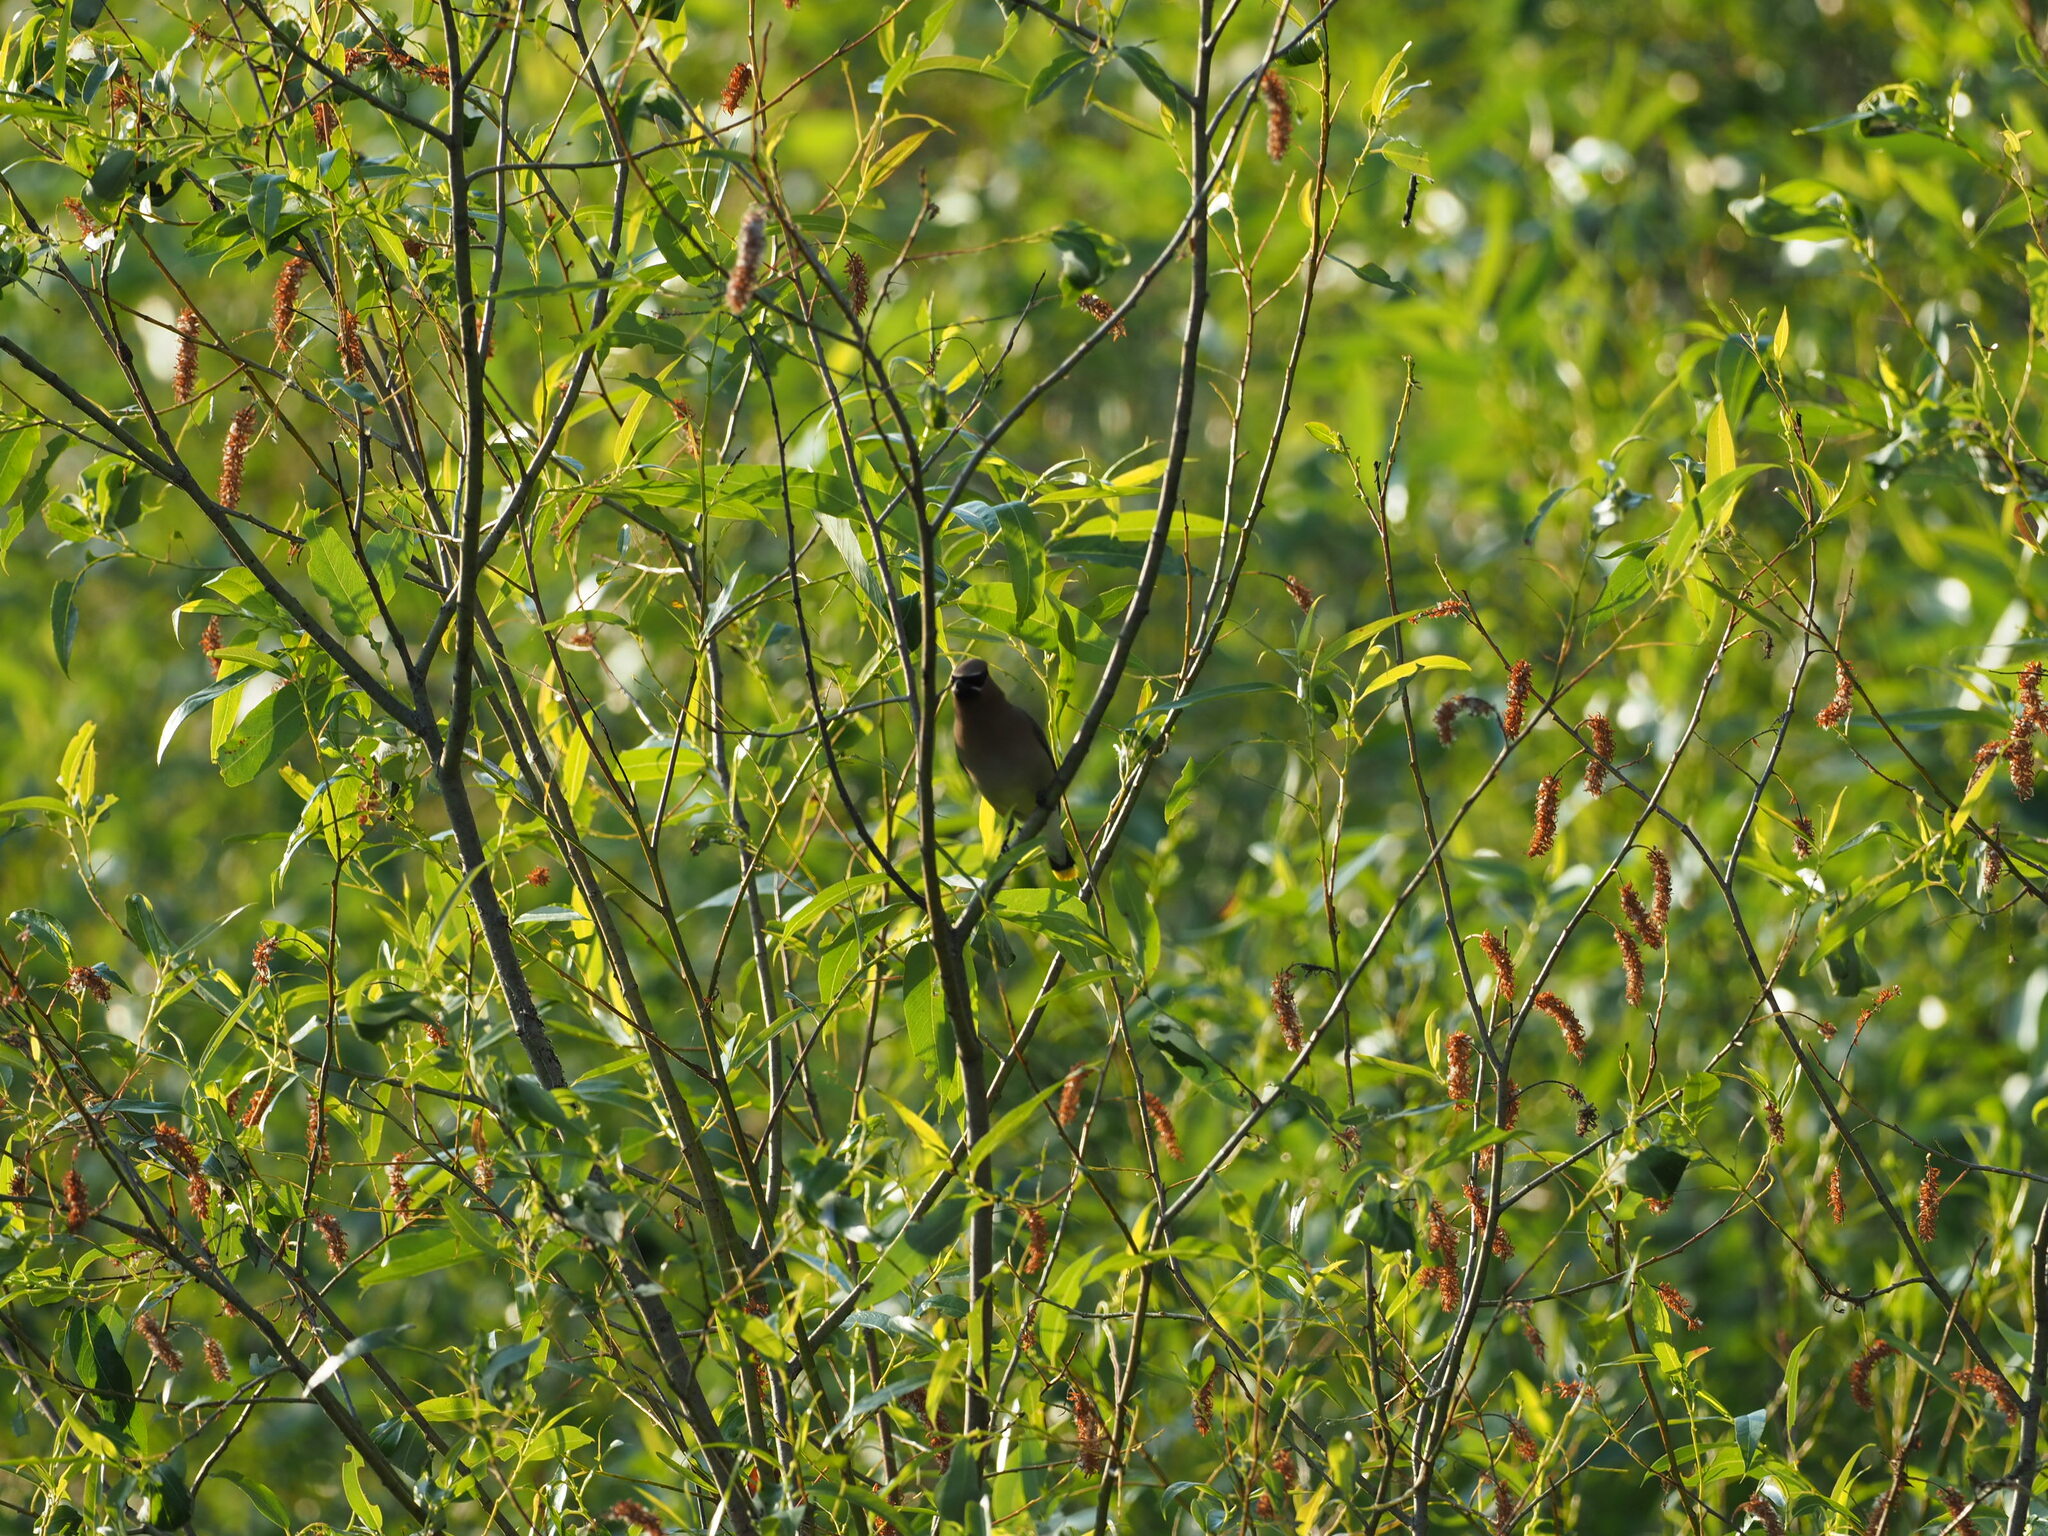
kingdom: Animalia
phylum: Chordata
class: Aves
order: Passeriformes
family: Bombycillidae
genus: Bombycilla
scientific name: Bombycilla cedrorum
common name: Cedar waxwing
